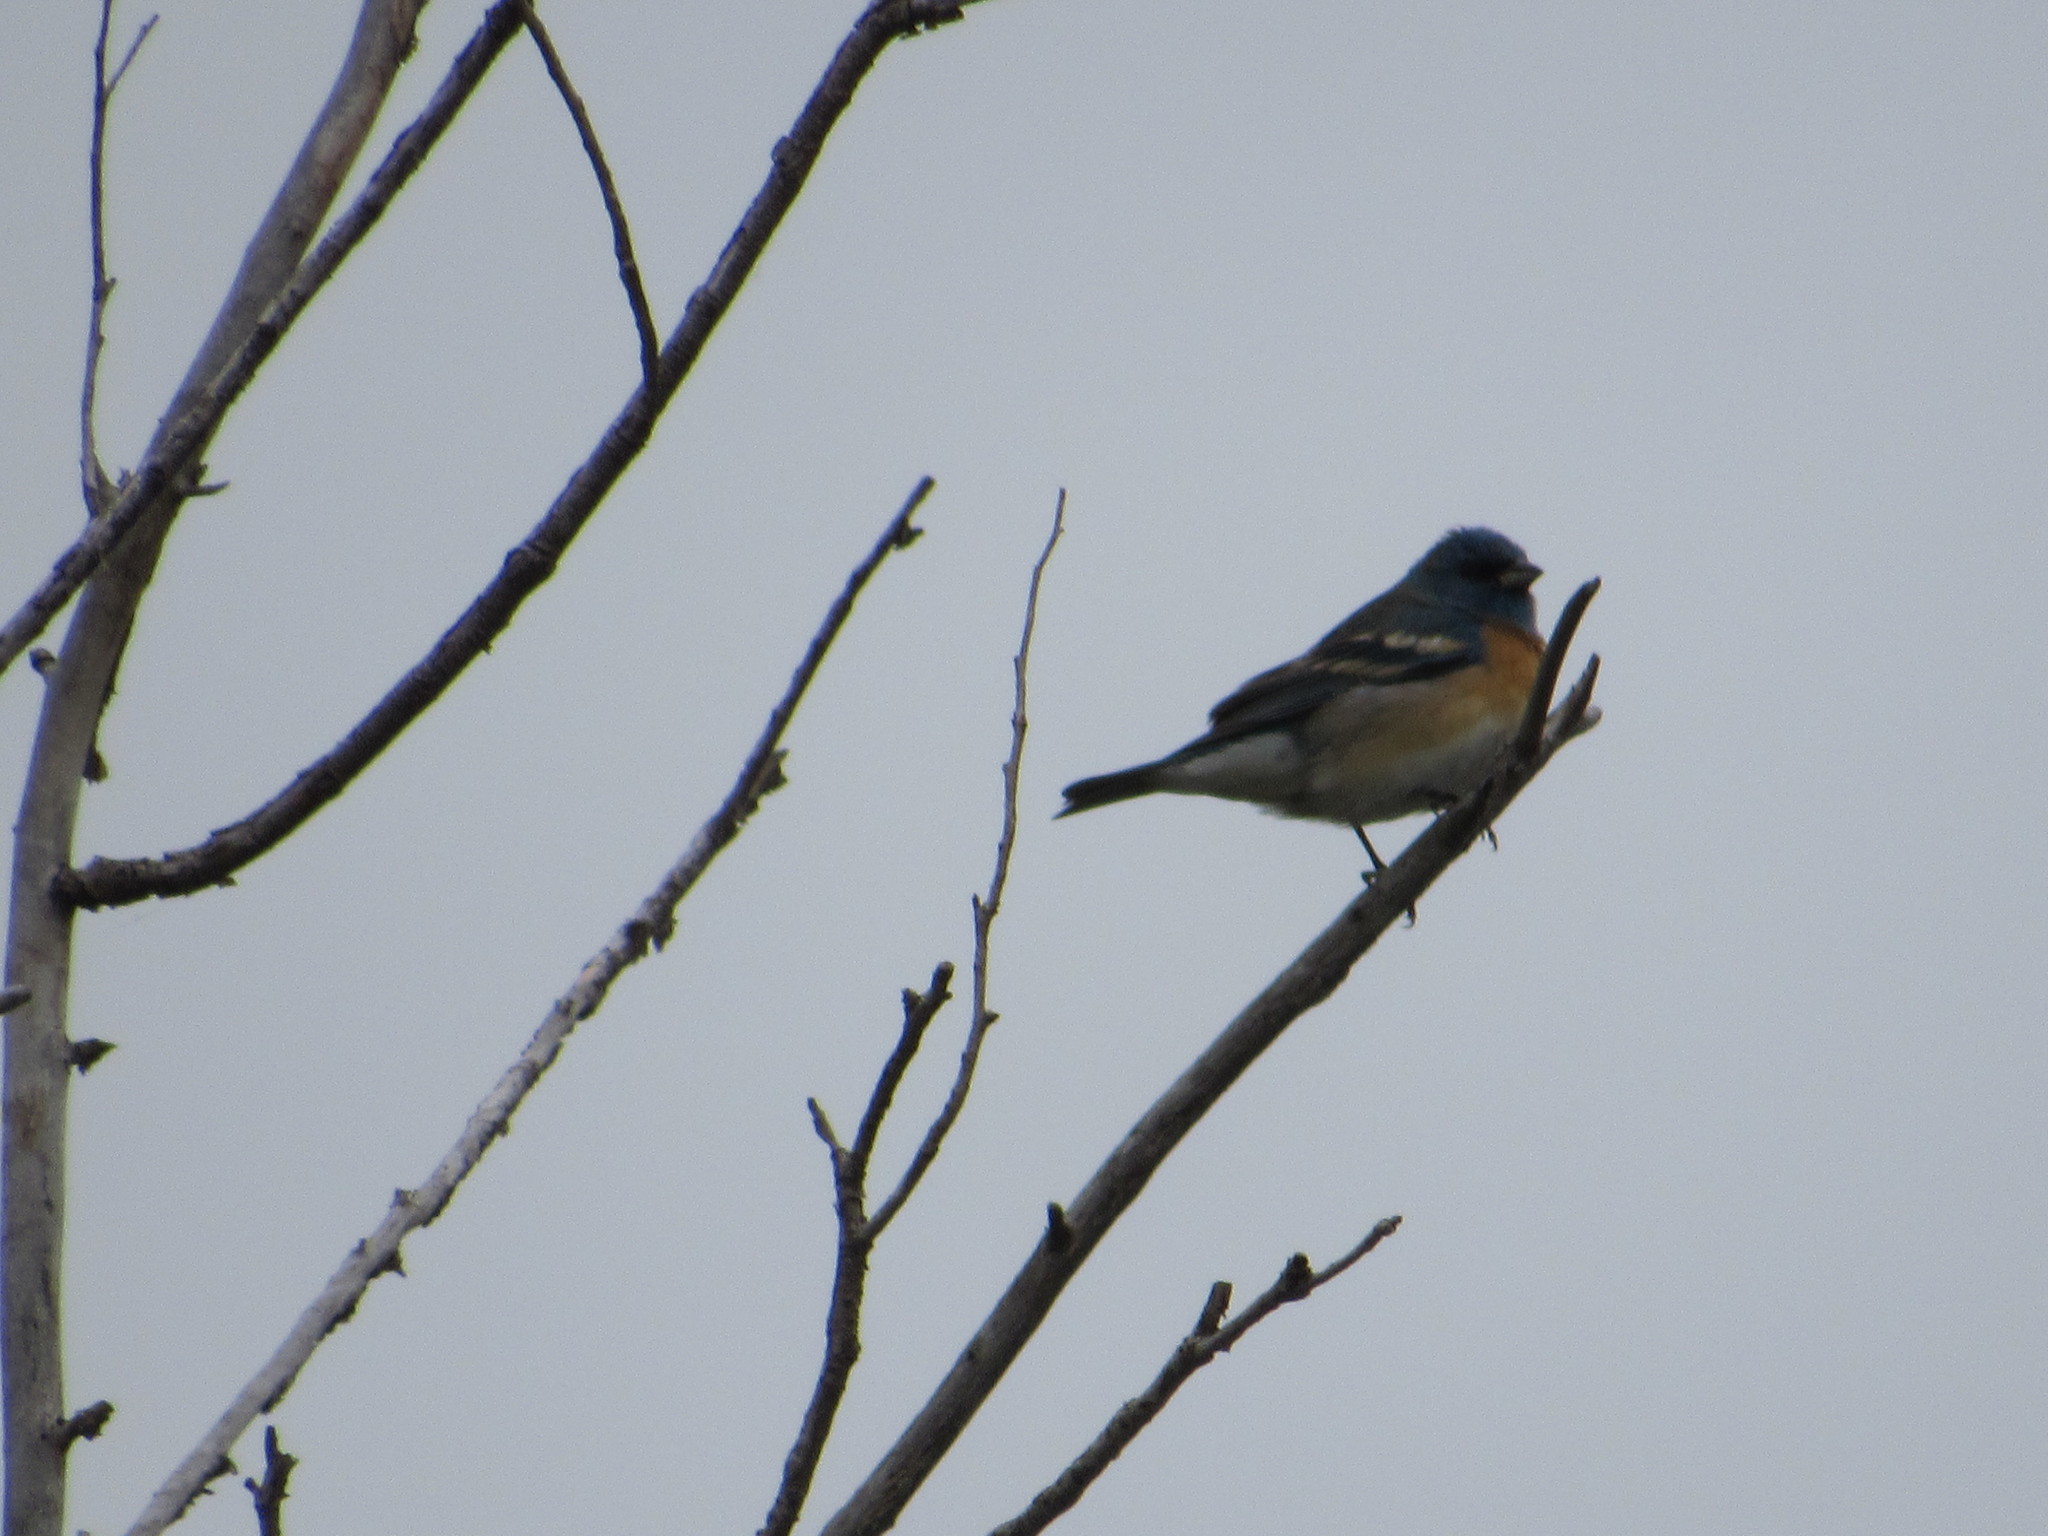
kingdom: Animalia
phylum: Chordata
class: Aves
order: Passeriformes
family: Cardinalidae
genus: Passerina
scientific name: Passerina amoena
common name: Lazuli bunting
